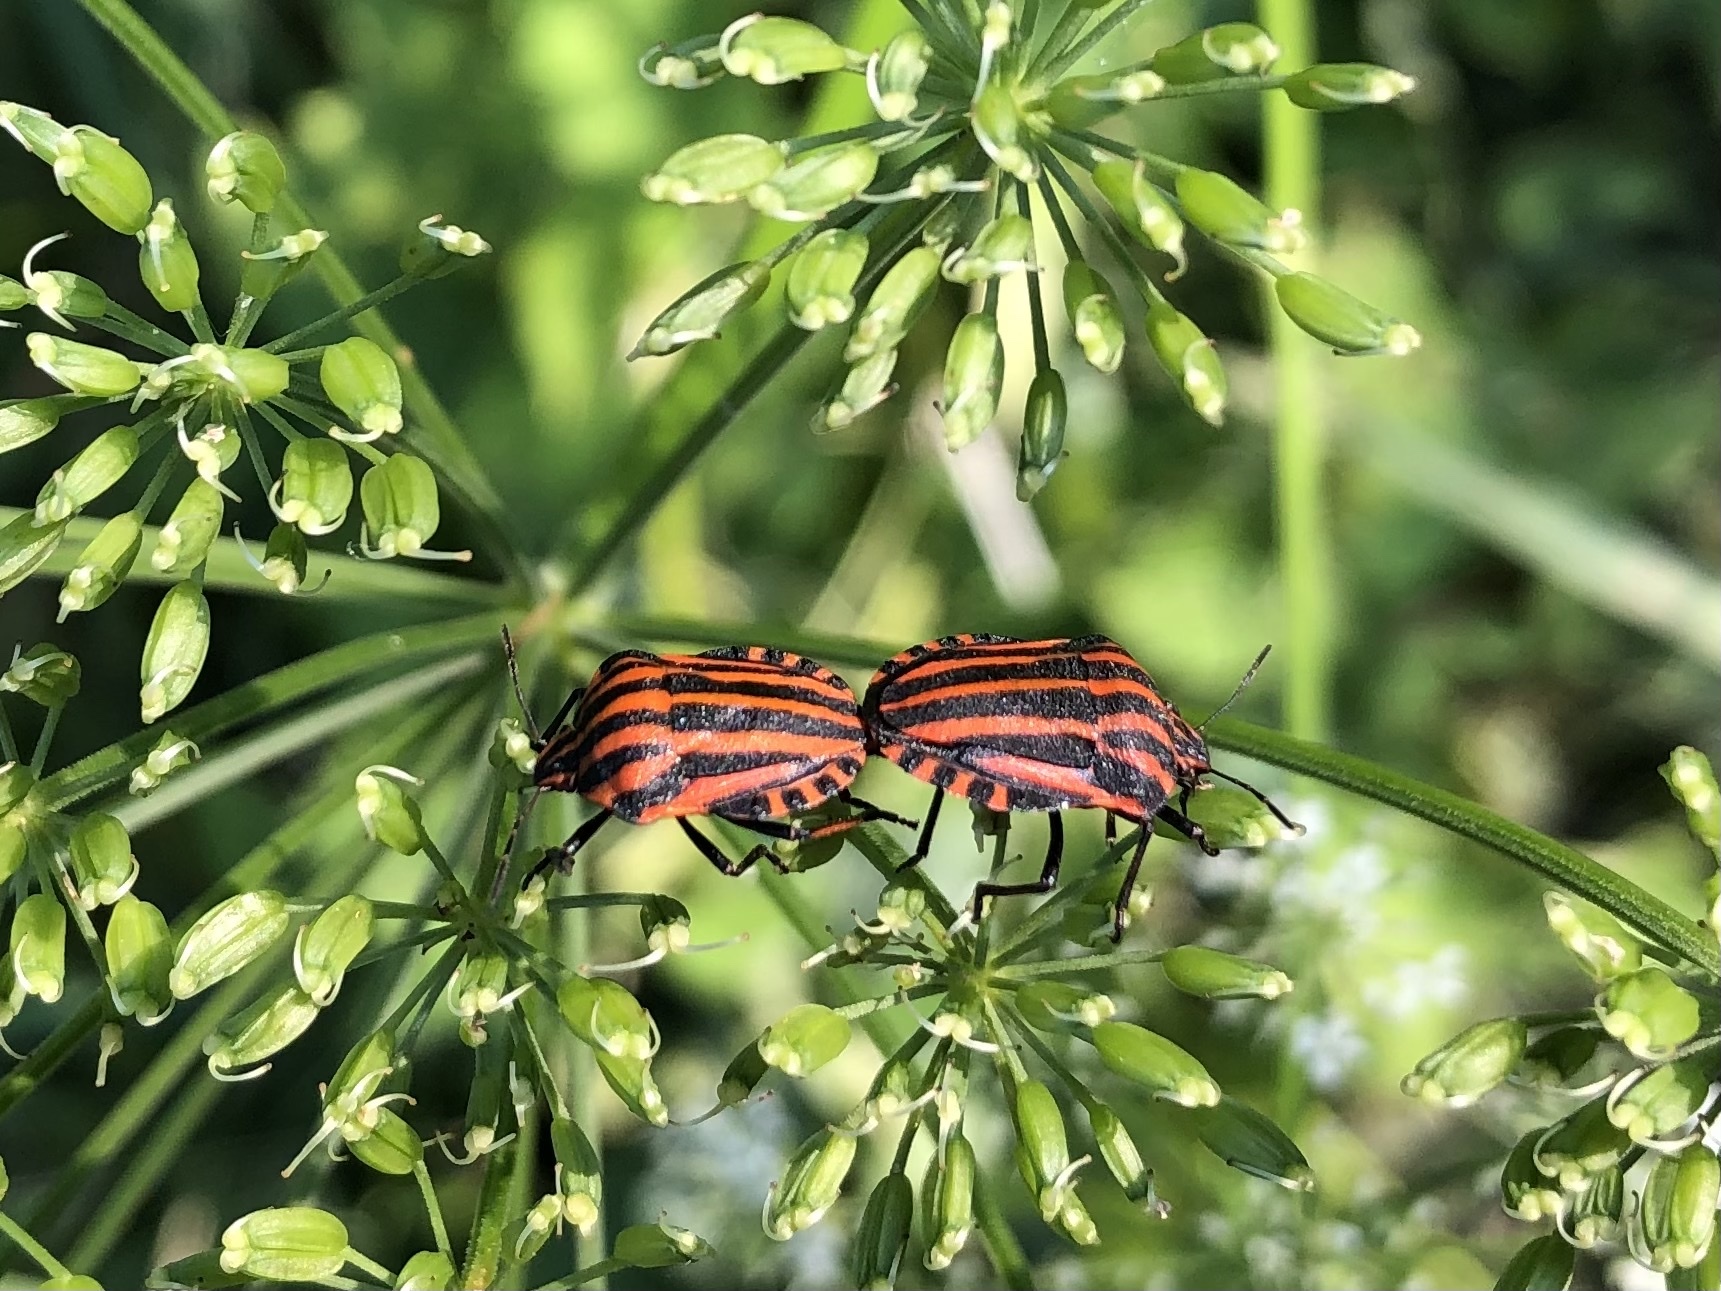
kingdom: Animalia
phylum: Arthropoda
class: Insecta
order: Hemiptera
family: Pentatomidae
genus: Graphosoma
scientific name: Graphosoma italicum
